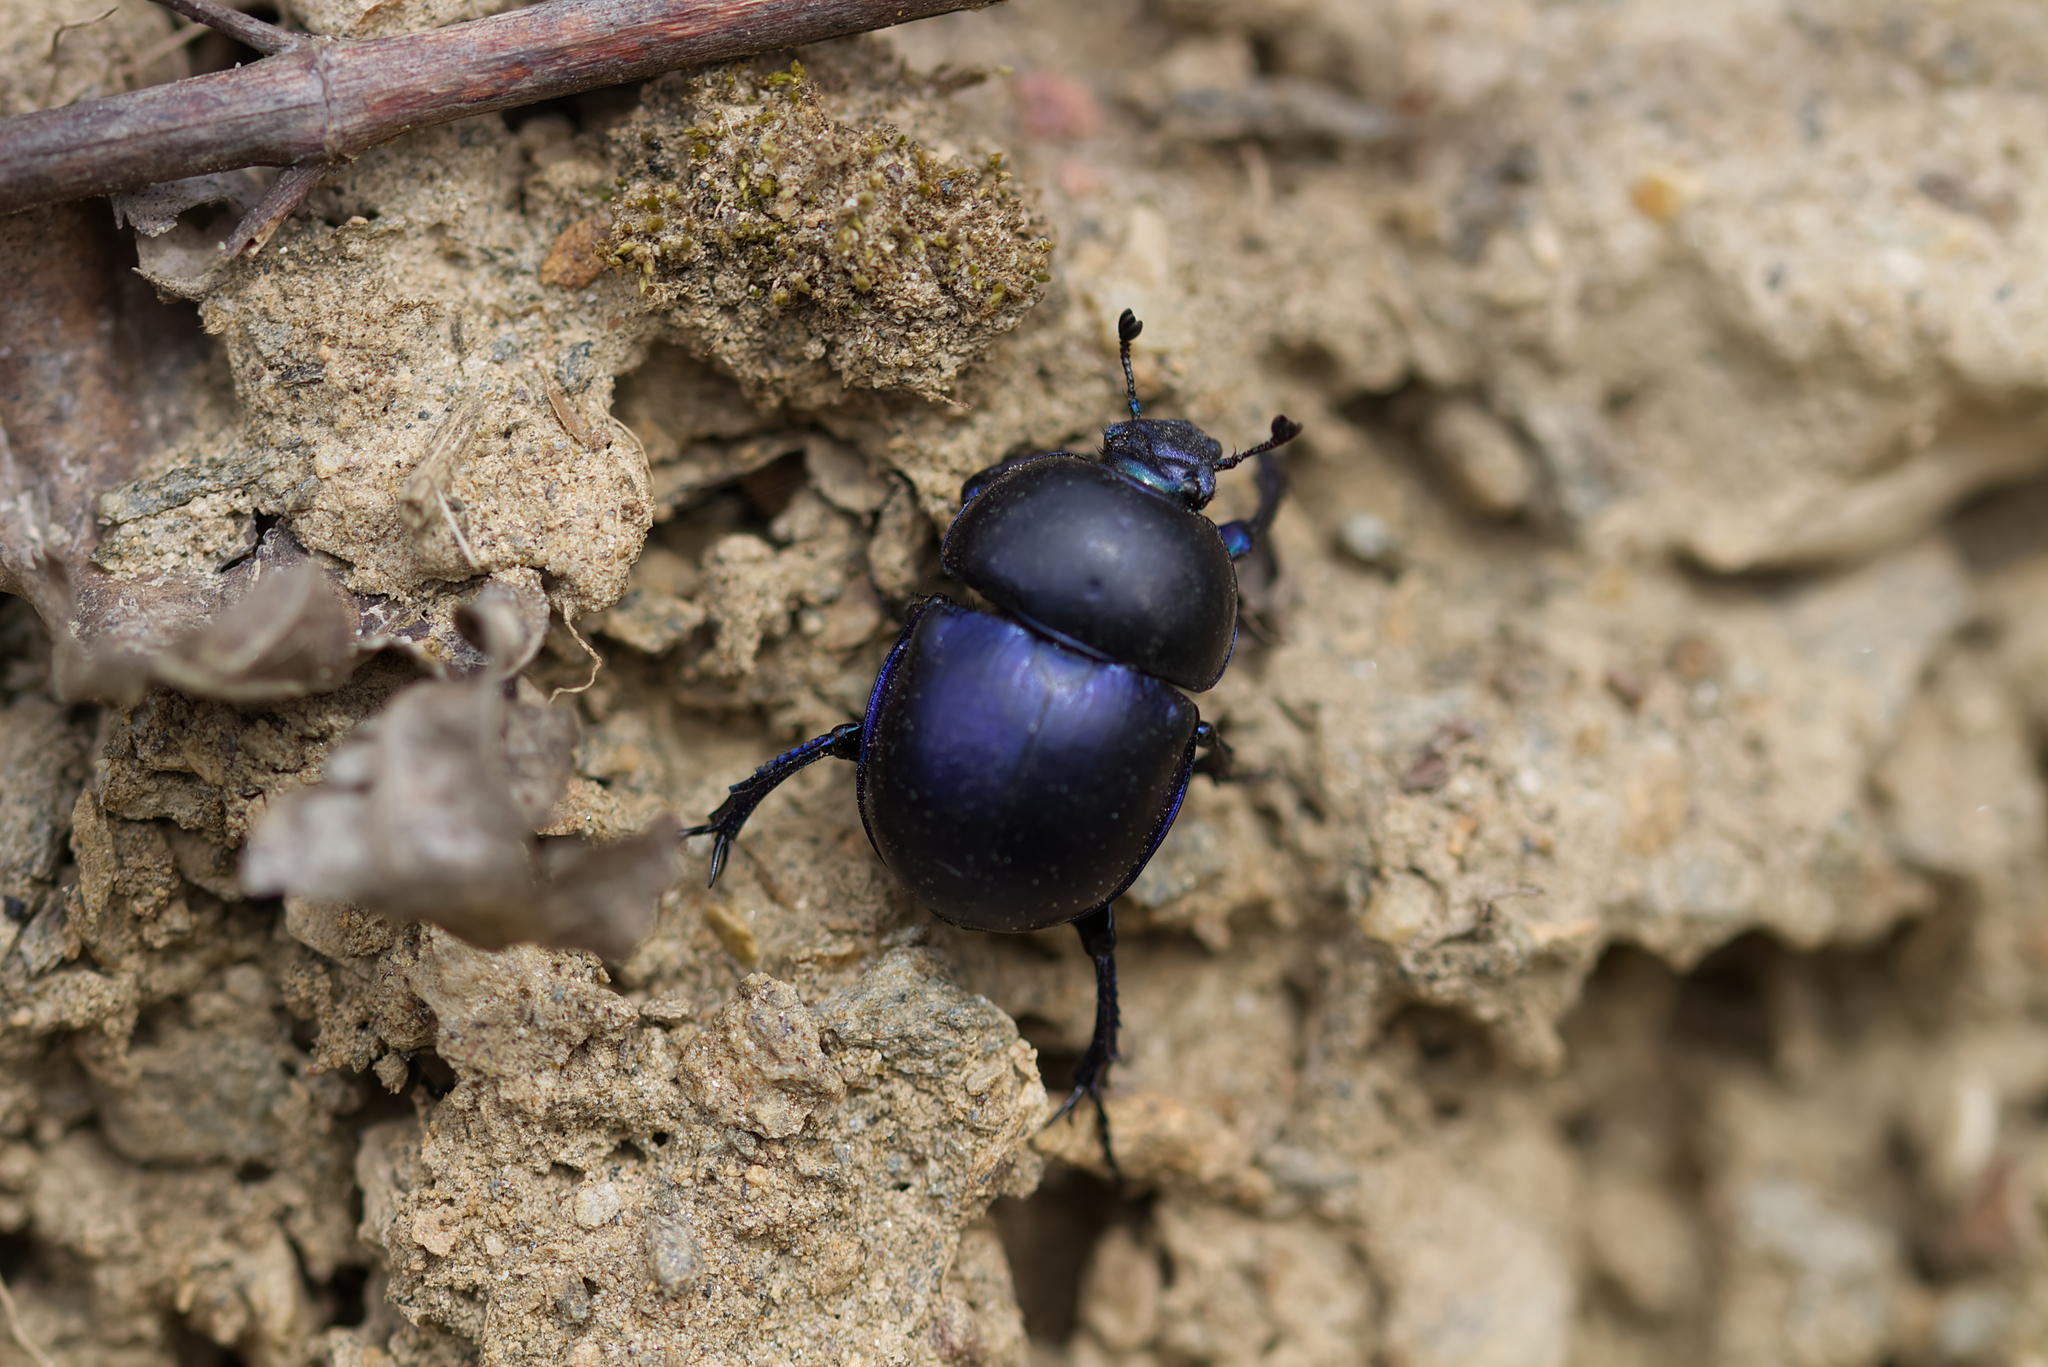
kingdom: Animalia
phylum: Arthropoda
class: Insecta
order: Coleoptera
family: Geotrupidae
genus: Trypocopris
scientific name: Trypocopris vernalis
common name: Spring dumbledor
